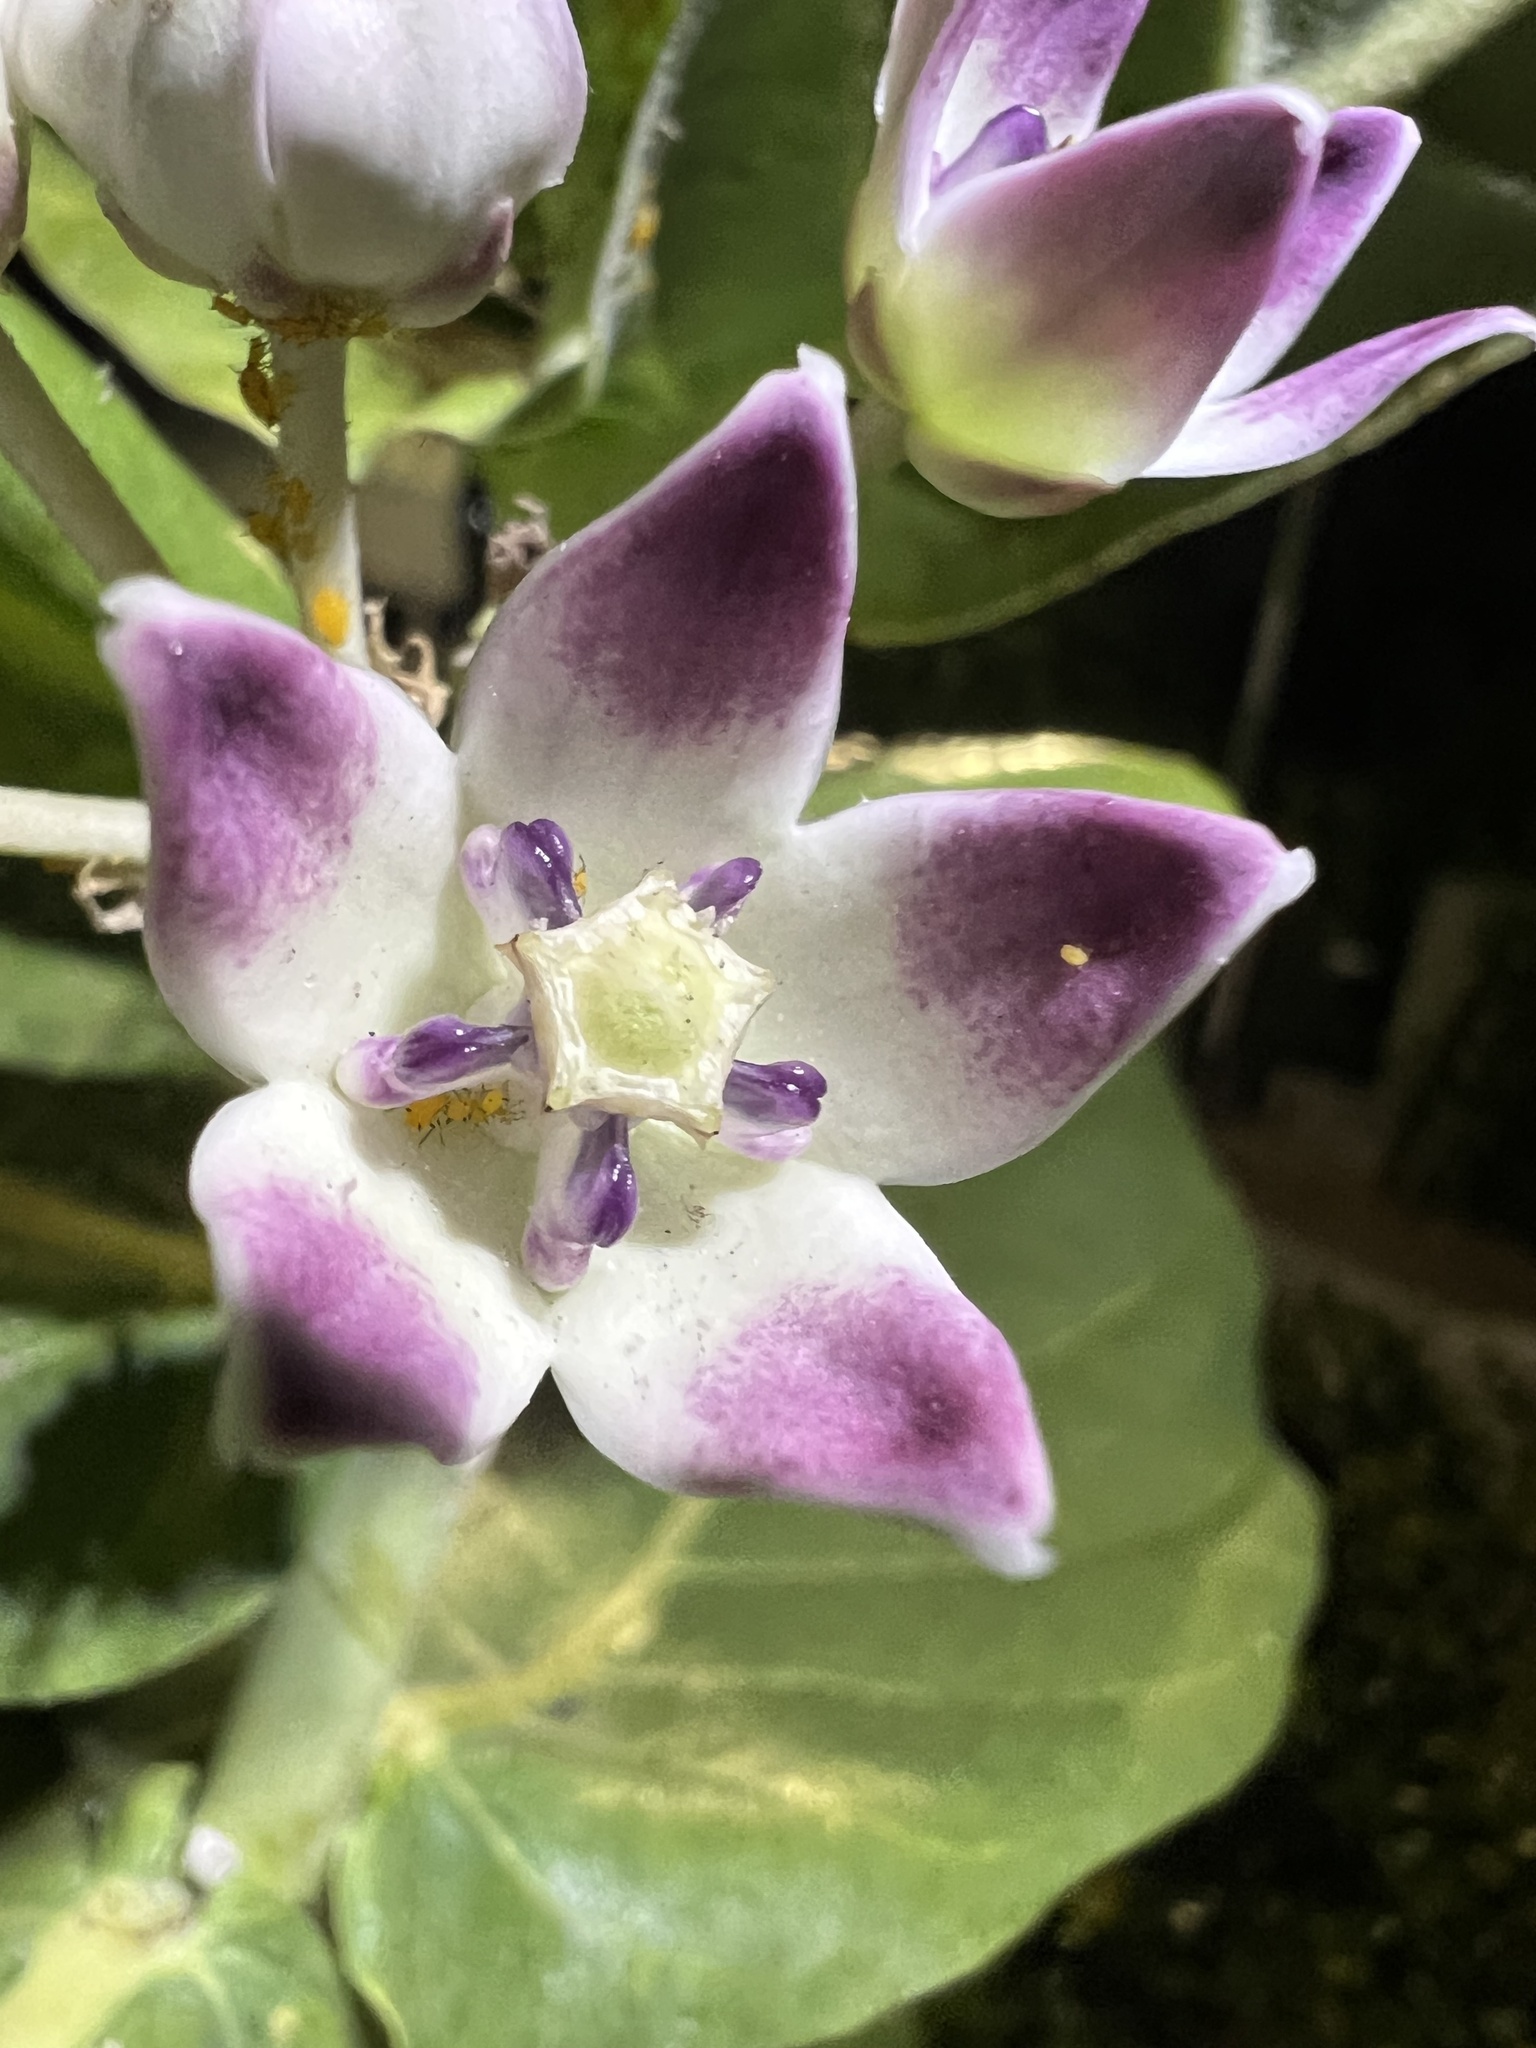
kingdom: Plantae
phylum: Tracheophyta
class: Magnoliopsida
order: Gentianales
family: Apocynaceae
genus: Calotropis
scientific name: Calotropis procera
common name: Roostertree
